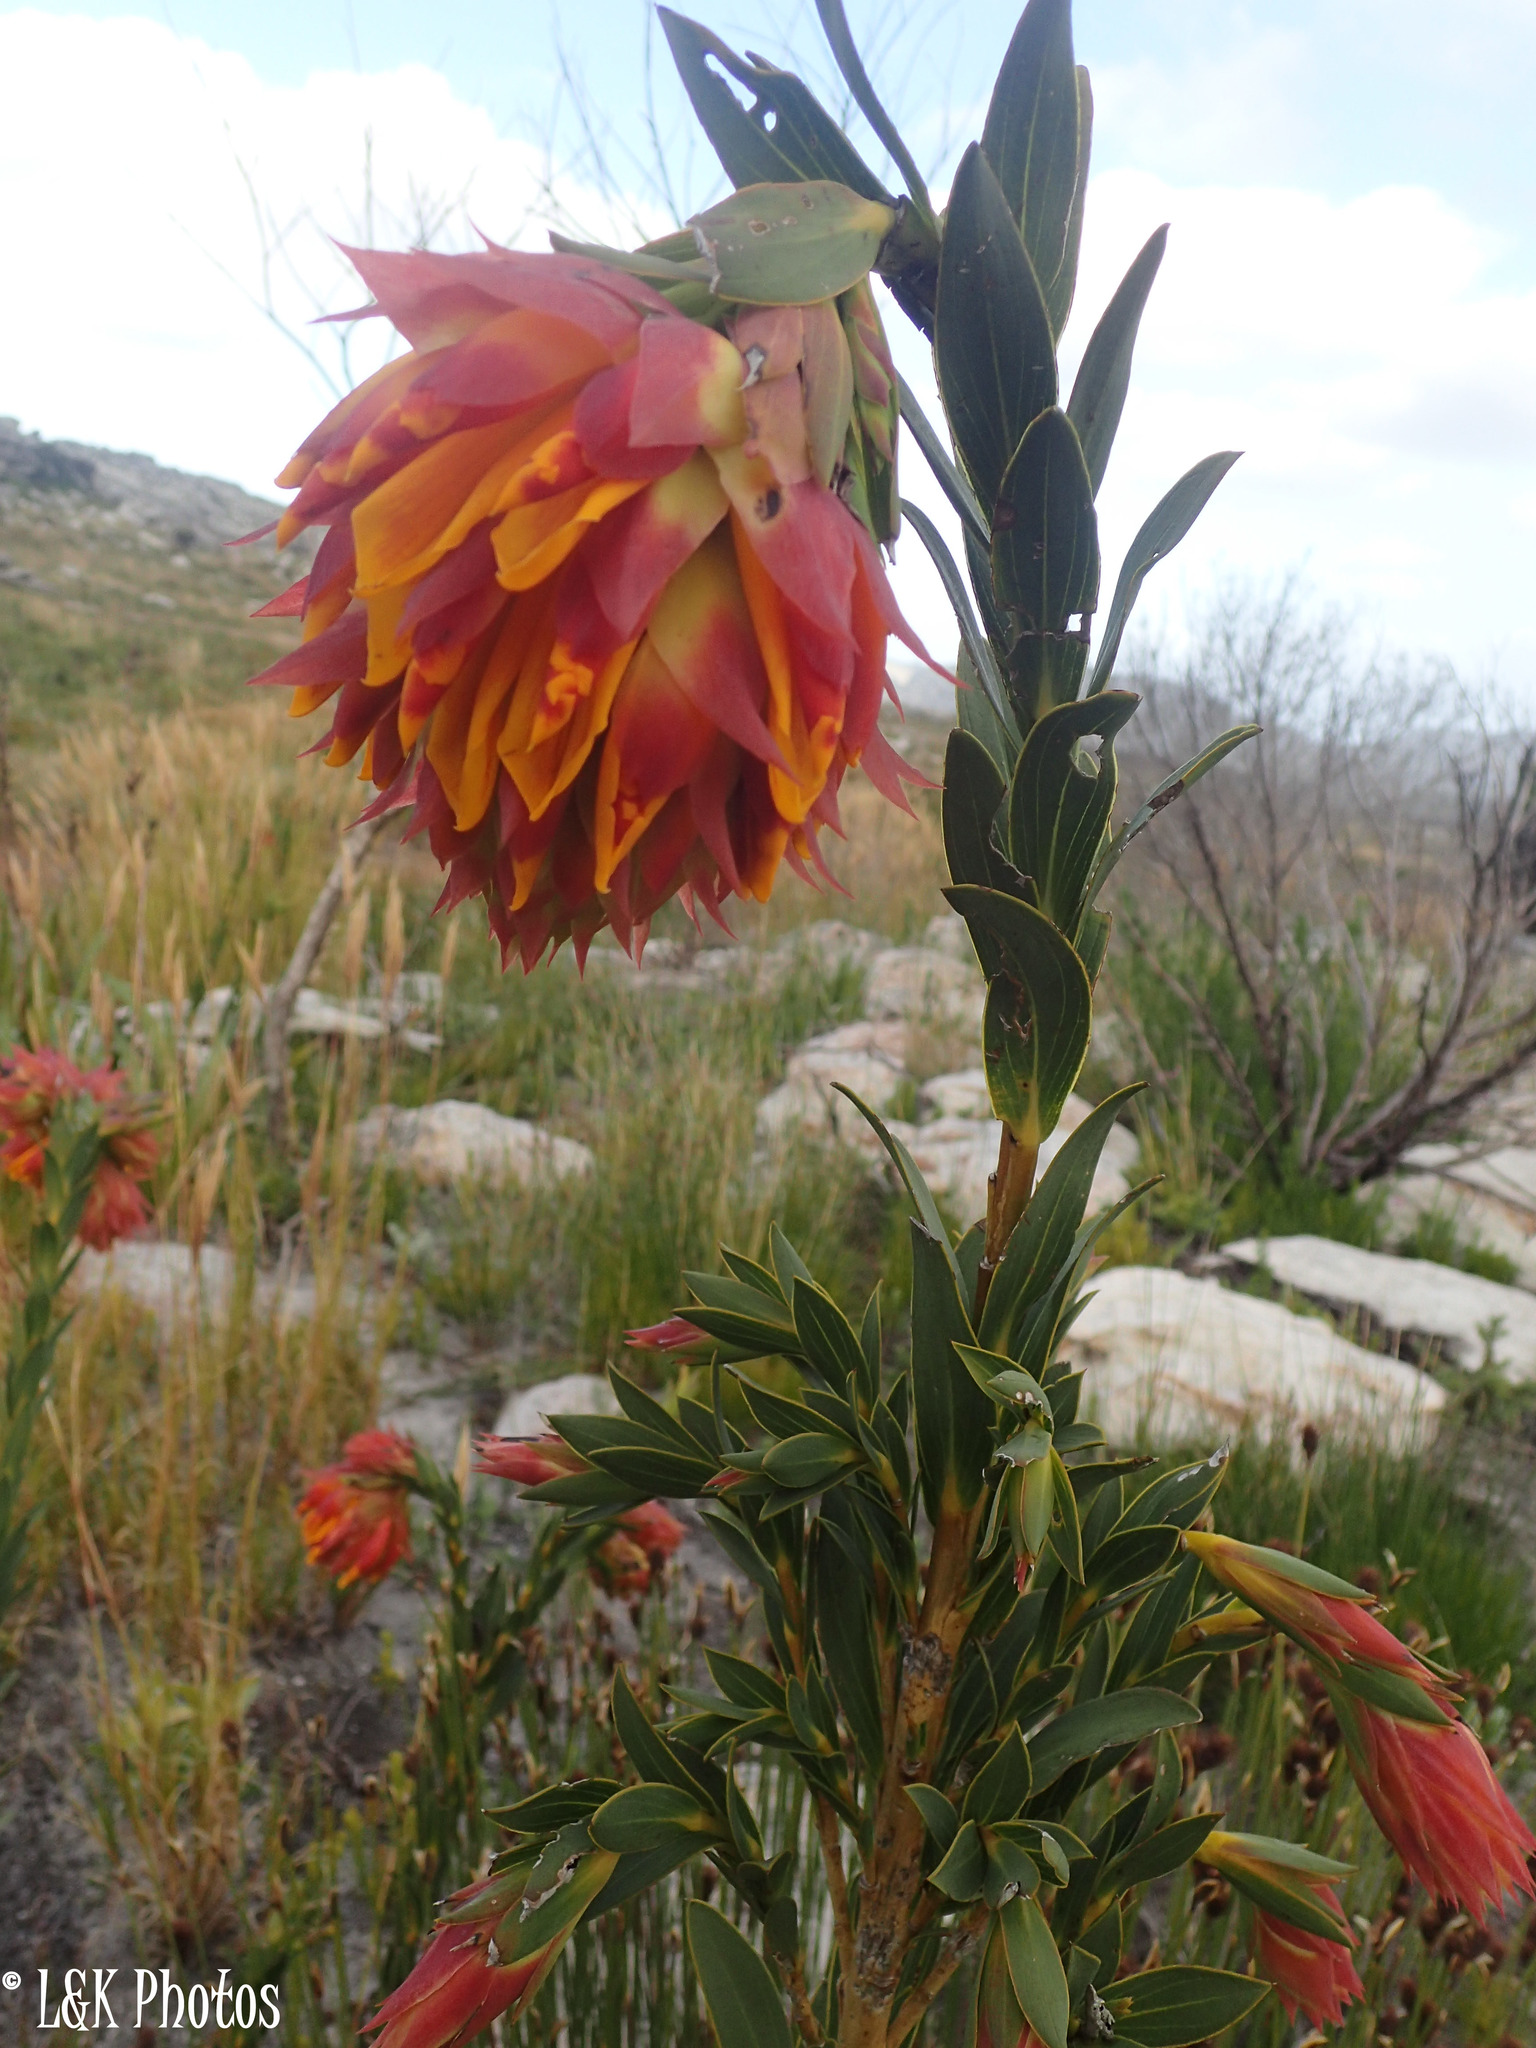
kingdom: Plantae
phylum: Tracheophyta
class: Magnoliopsida
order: Fabales
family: Fabaceae
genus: Liparia
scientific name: Liparia splendens
